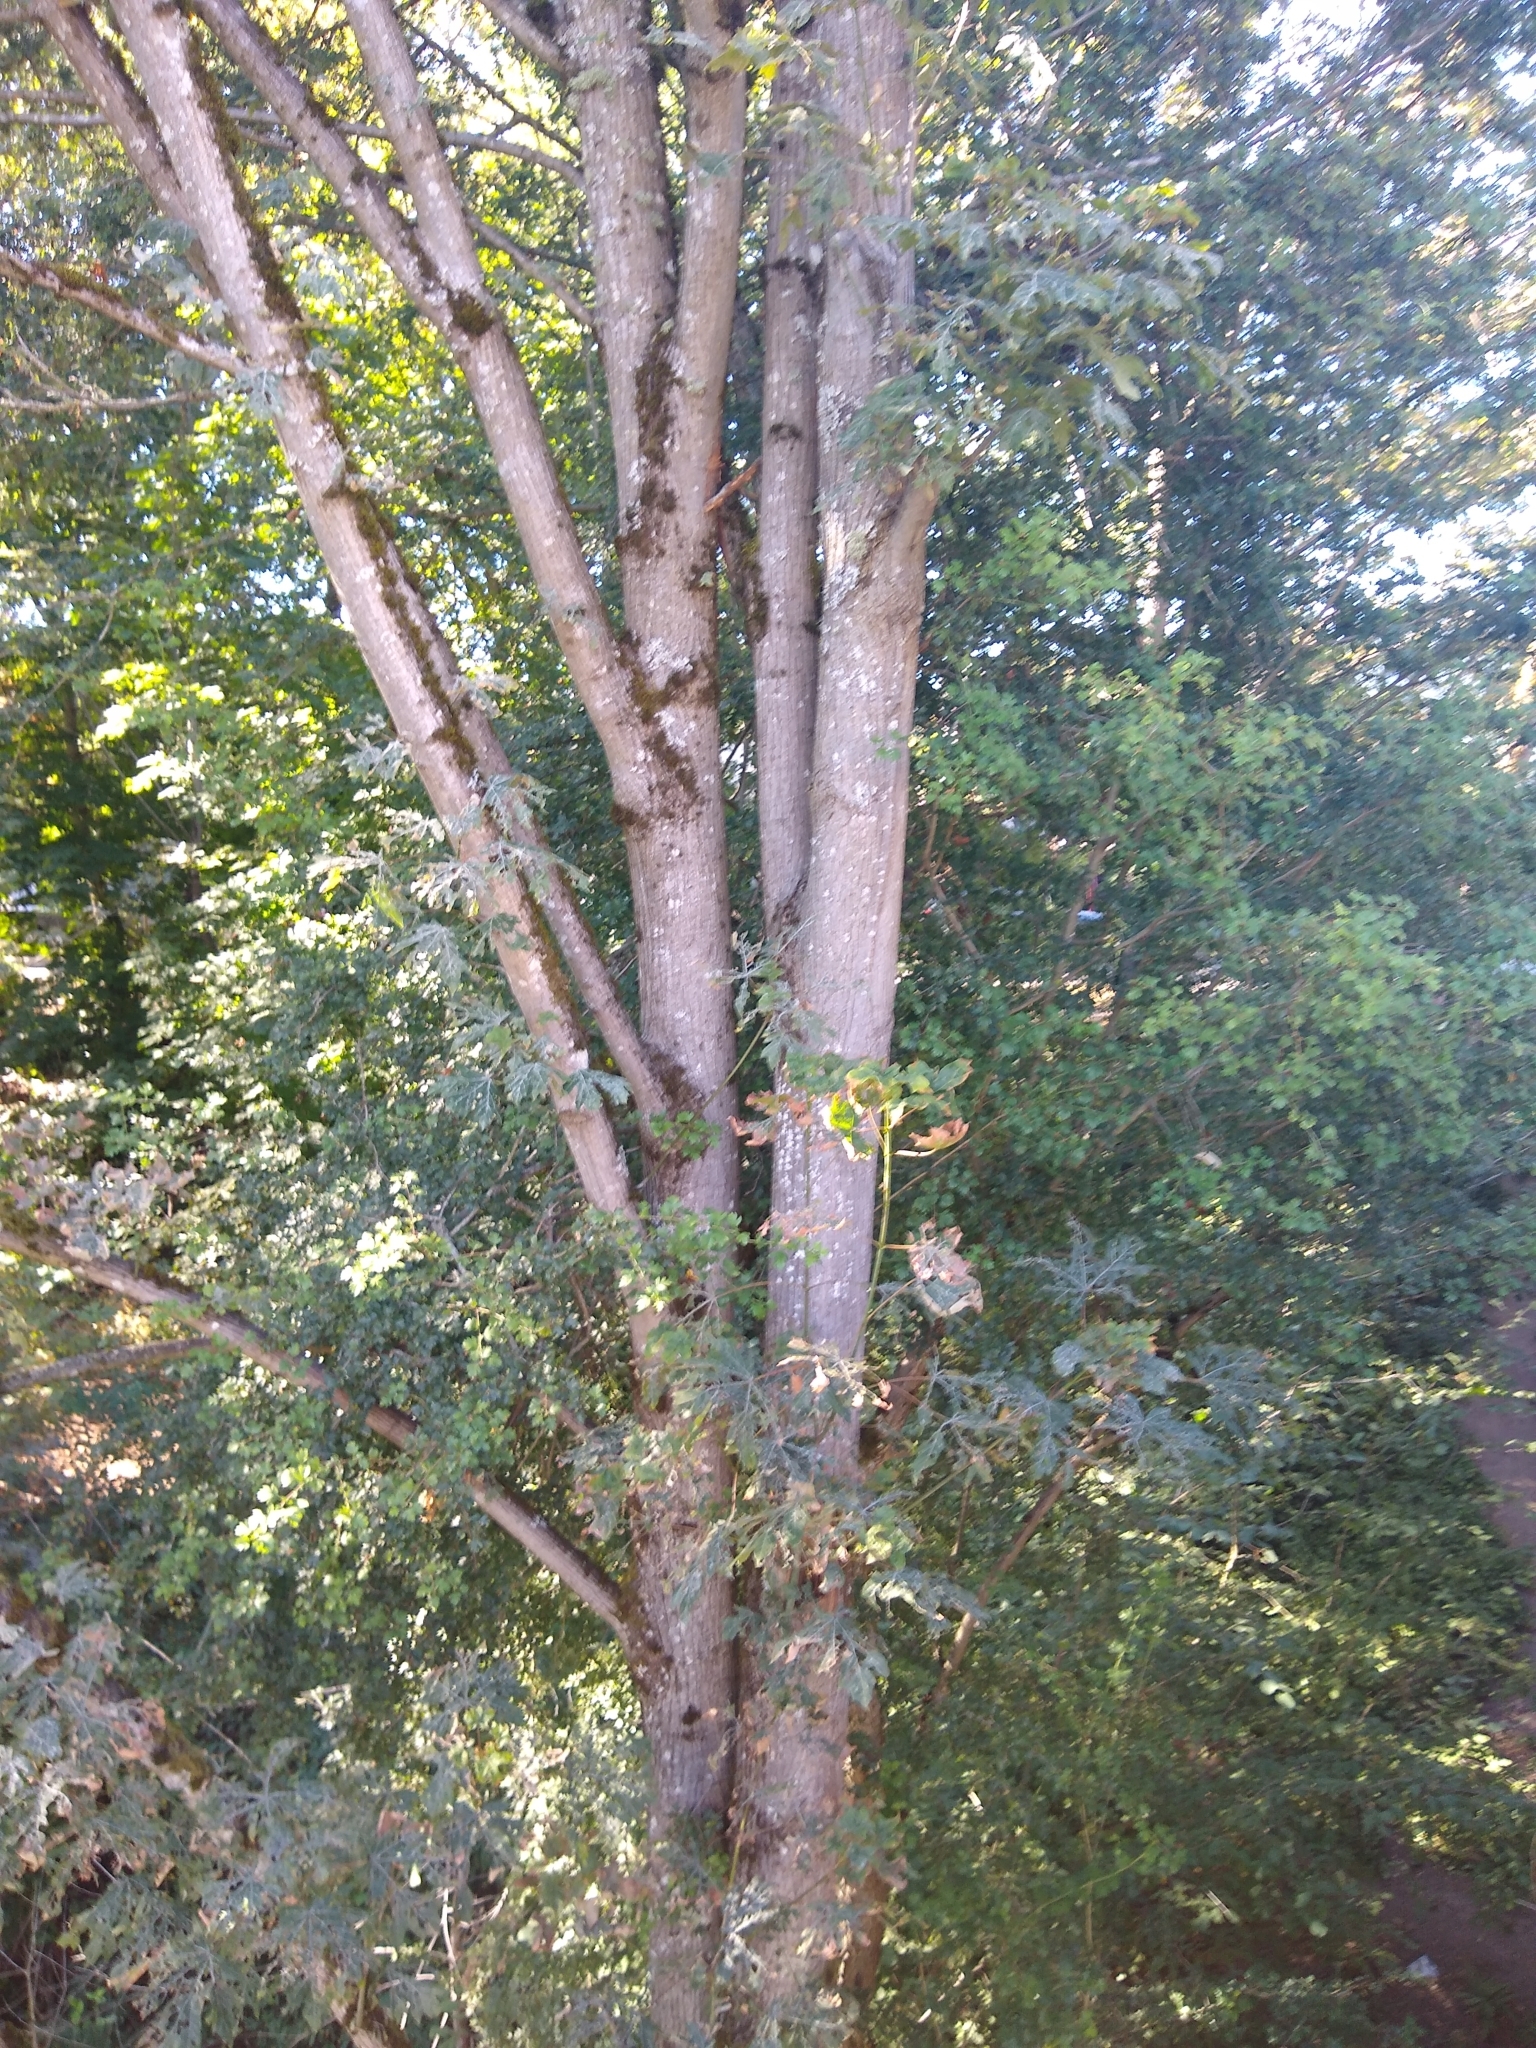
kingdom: Plantae
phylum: Tracheophyta
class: Magnoliopsida
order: Rosales
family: Rosaceae
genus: Crataegus
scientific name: Crataegus monogyna
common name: Hawthorn
